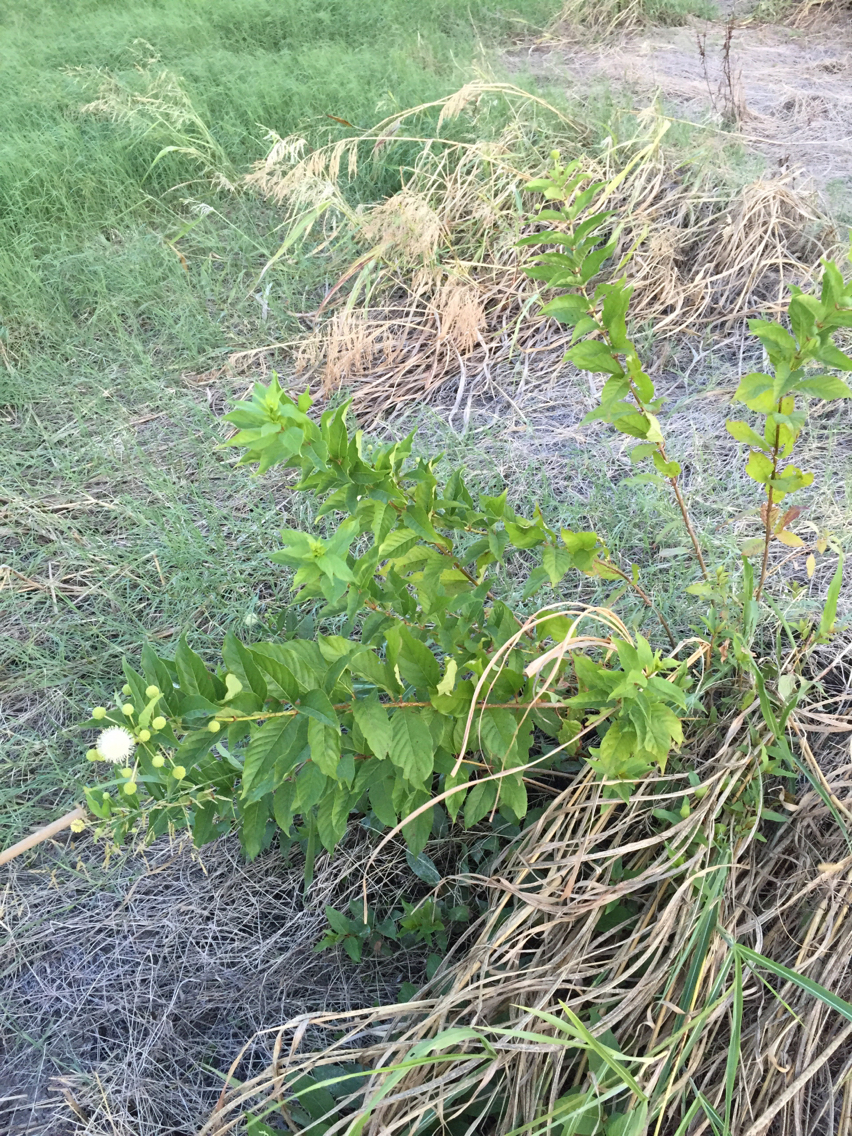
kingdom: Plantae
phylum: Tracheophyta
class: Magnoliopsida
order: Gentianales
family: Rubiaceae
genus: Cephalanthus
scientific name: Cephalanthus occidentalis
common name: Button-willow
